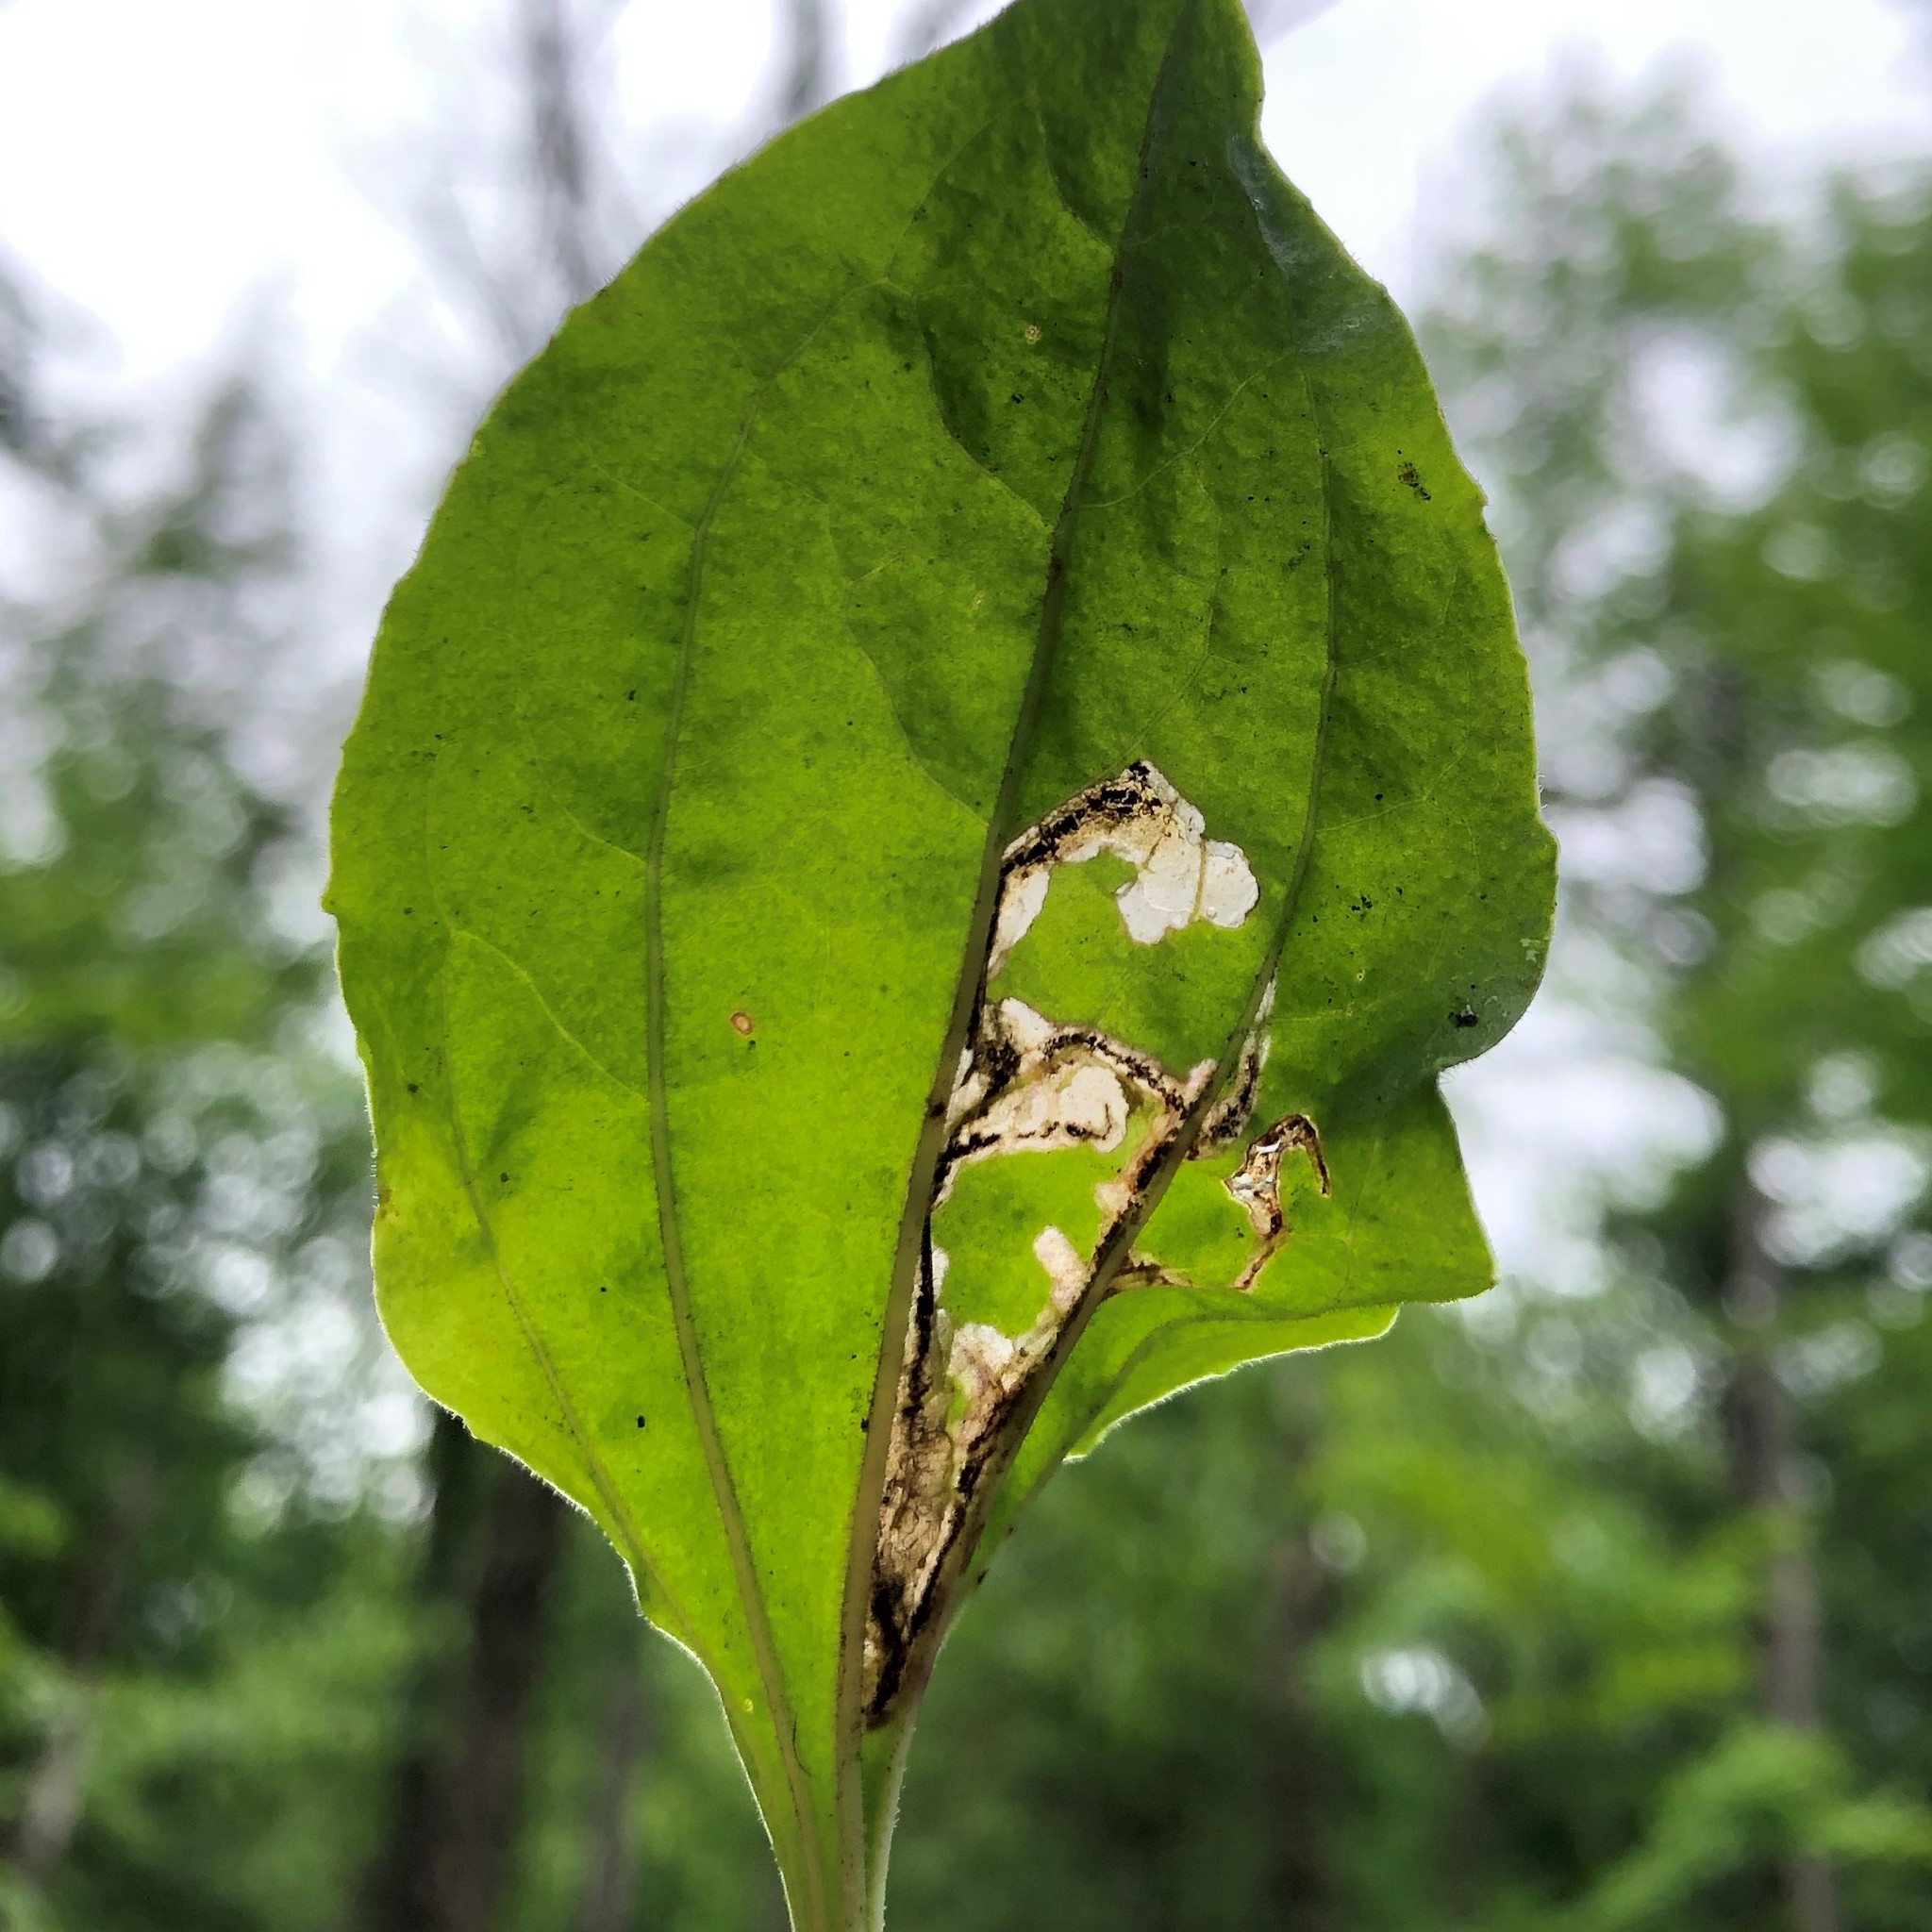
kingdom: Animalia
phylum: Arthropoda
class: Insecta
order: Coleoptera
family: Chrysomelidae
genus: Dibolia
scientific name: Dibolia borealis
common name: Northern plantain flea beetle
